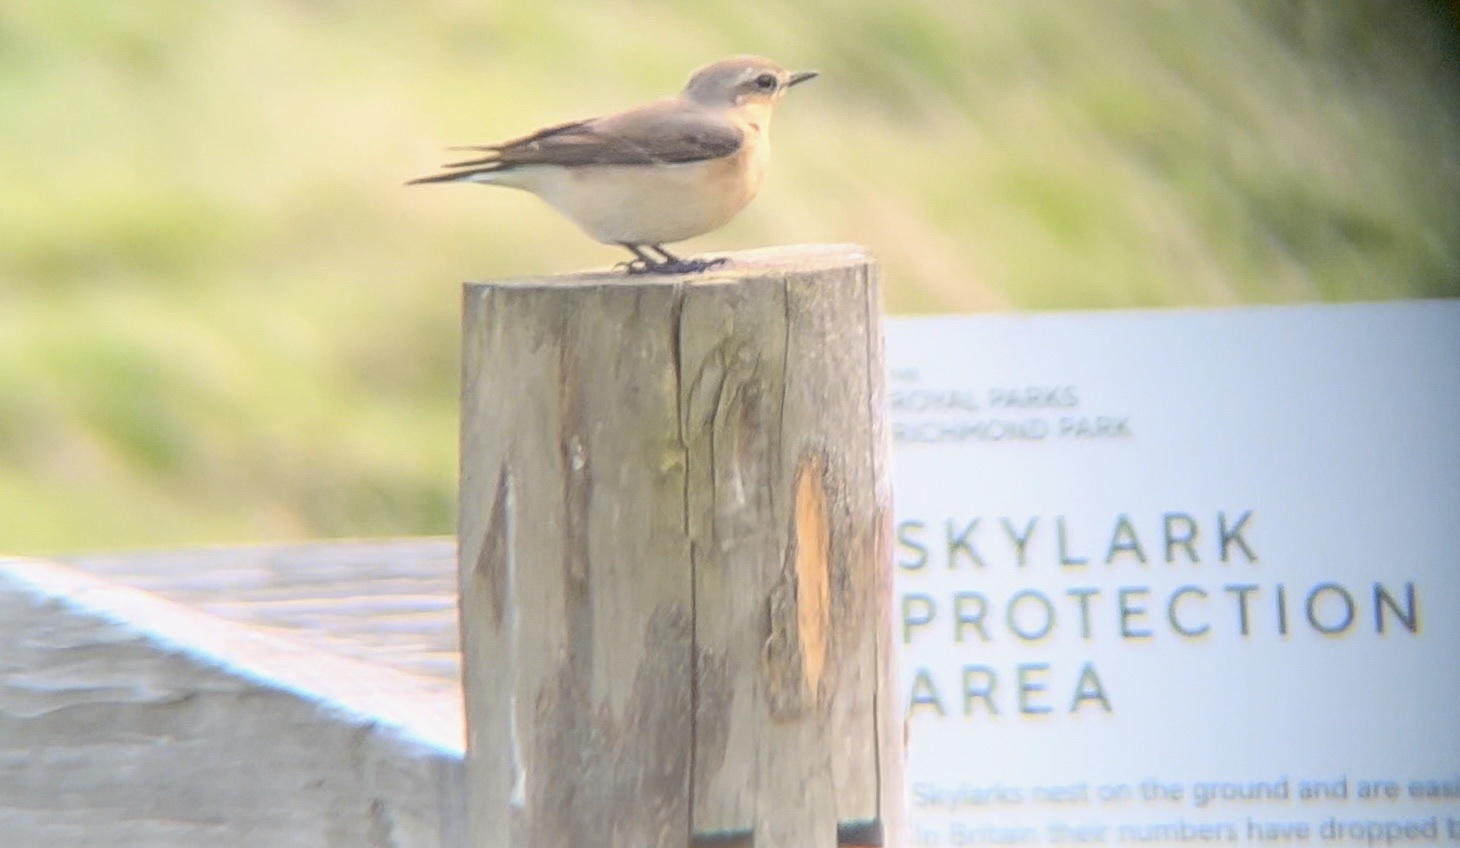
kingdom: Animalia
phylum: Chordata
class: Aves
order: Passeriformes
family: Muscicapidae
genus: Oenanthe
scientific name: Oenanthe oenanthe
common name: Northern wheatear
